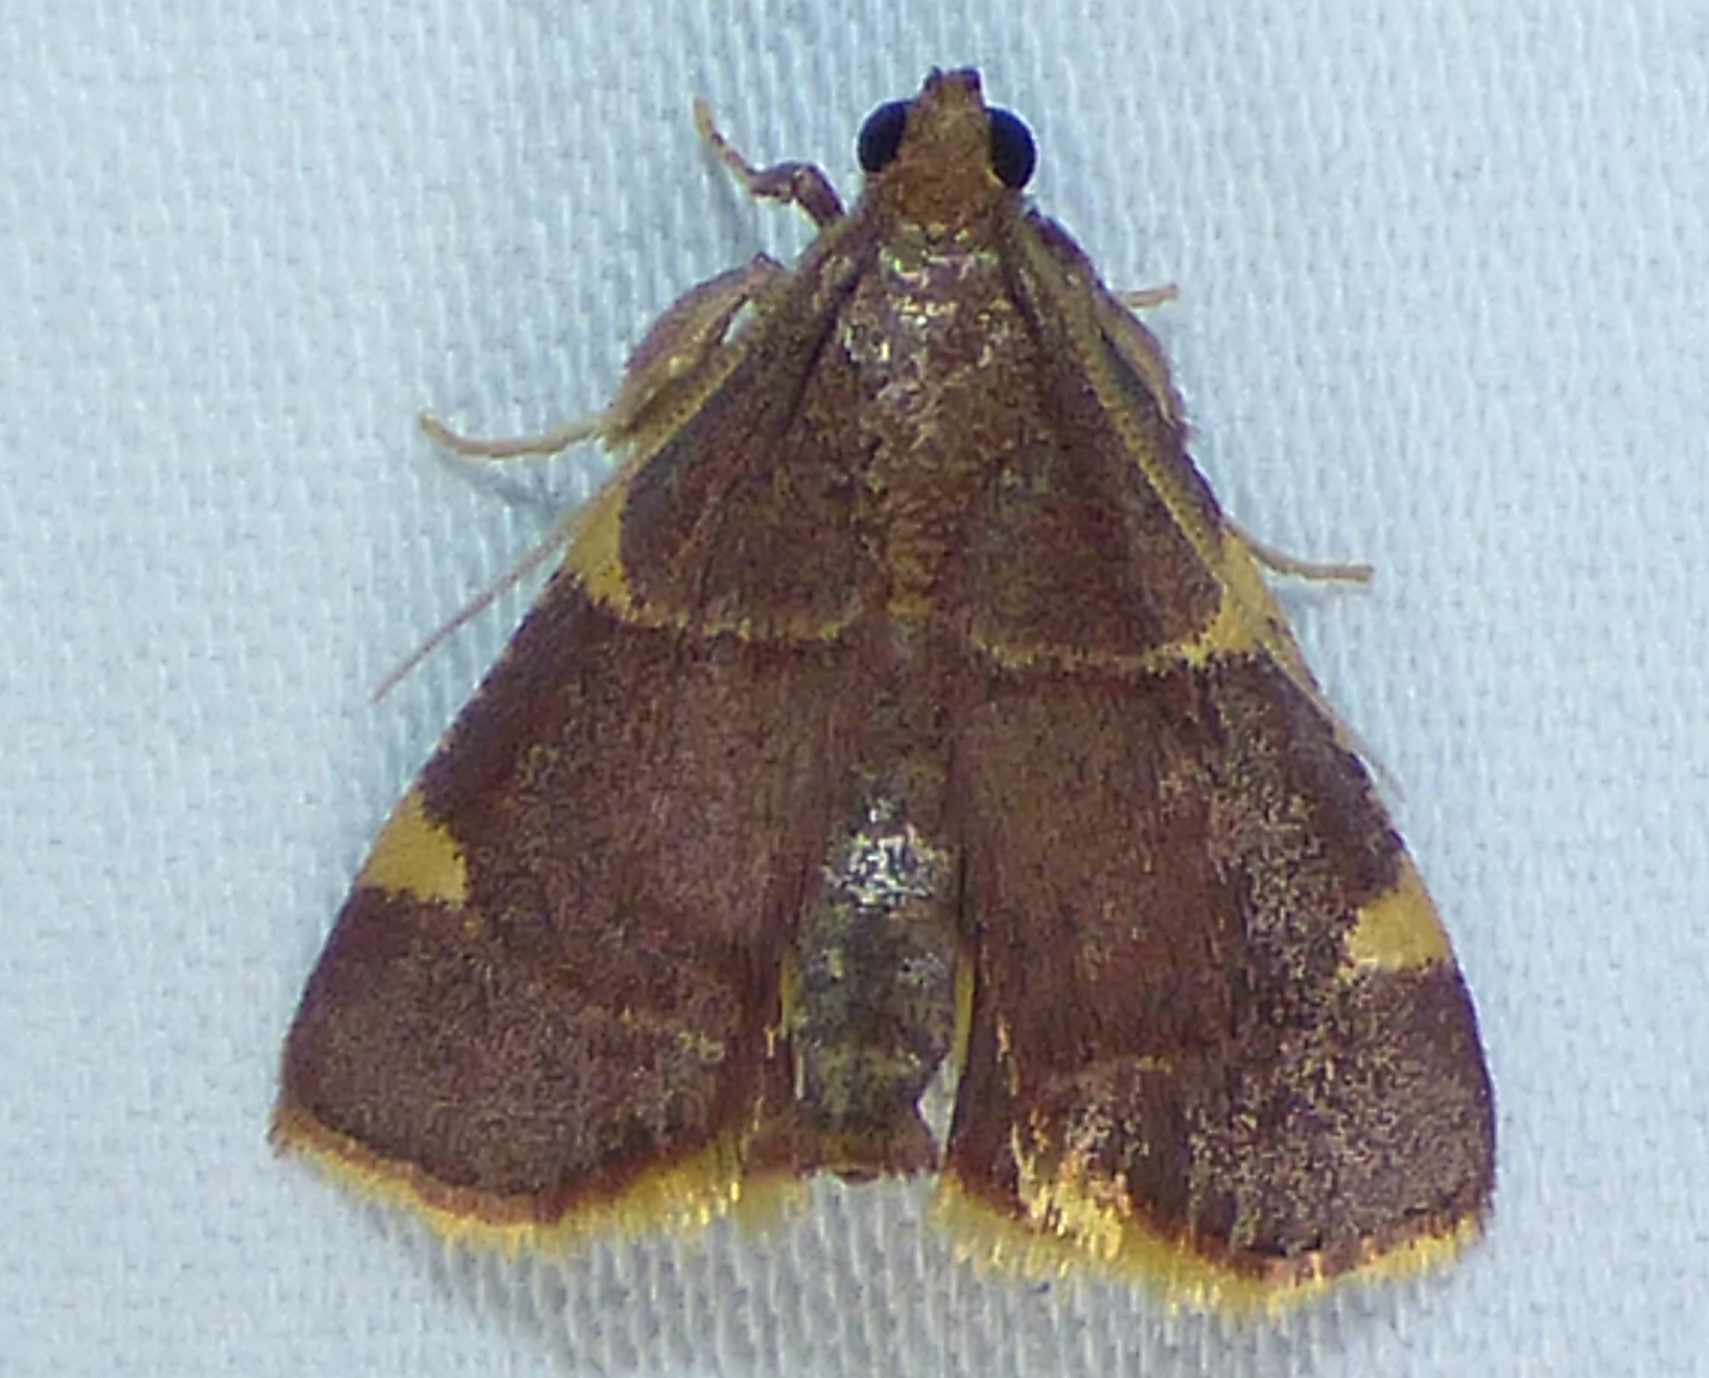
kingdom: Animalia
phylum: Arthropoda
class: Insecta
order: Lepidoptera
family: Pyralidae
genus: Hypsopygia
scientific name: Hypsopygia olinalis
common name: Yellow-fringed dolichomia moth
